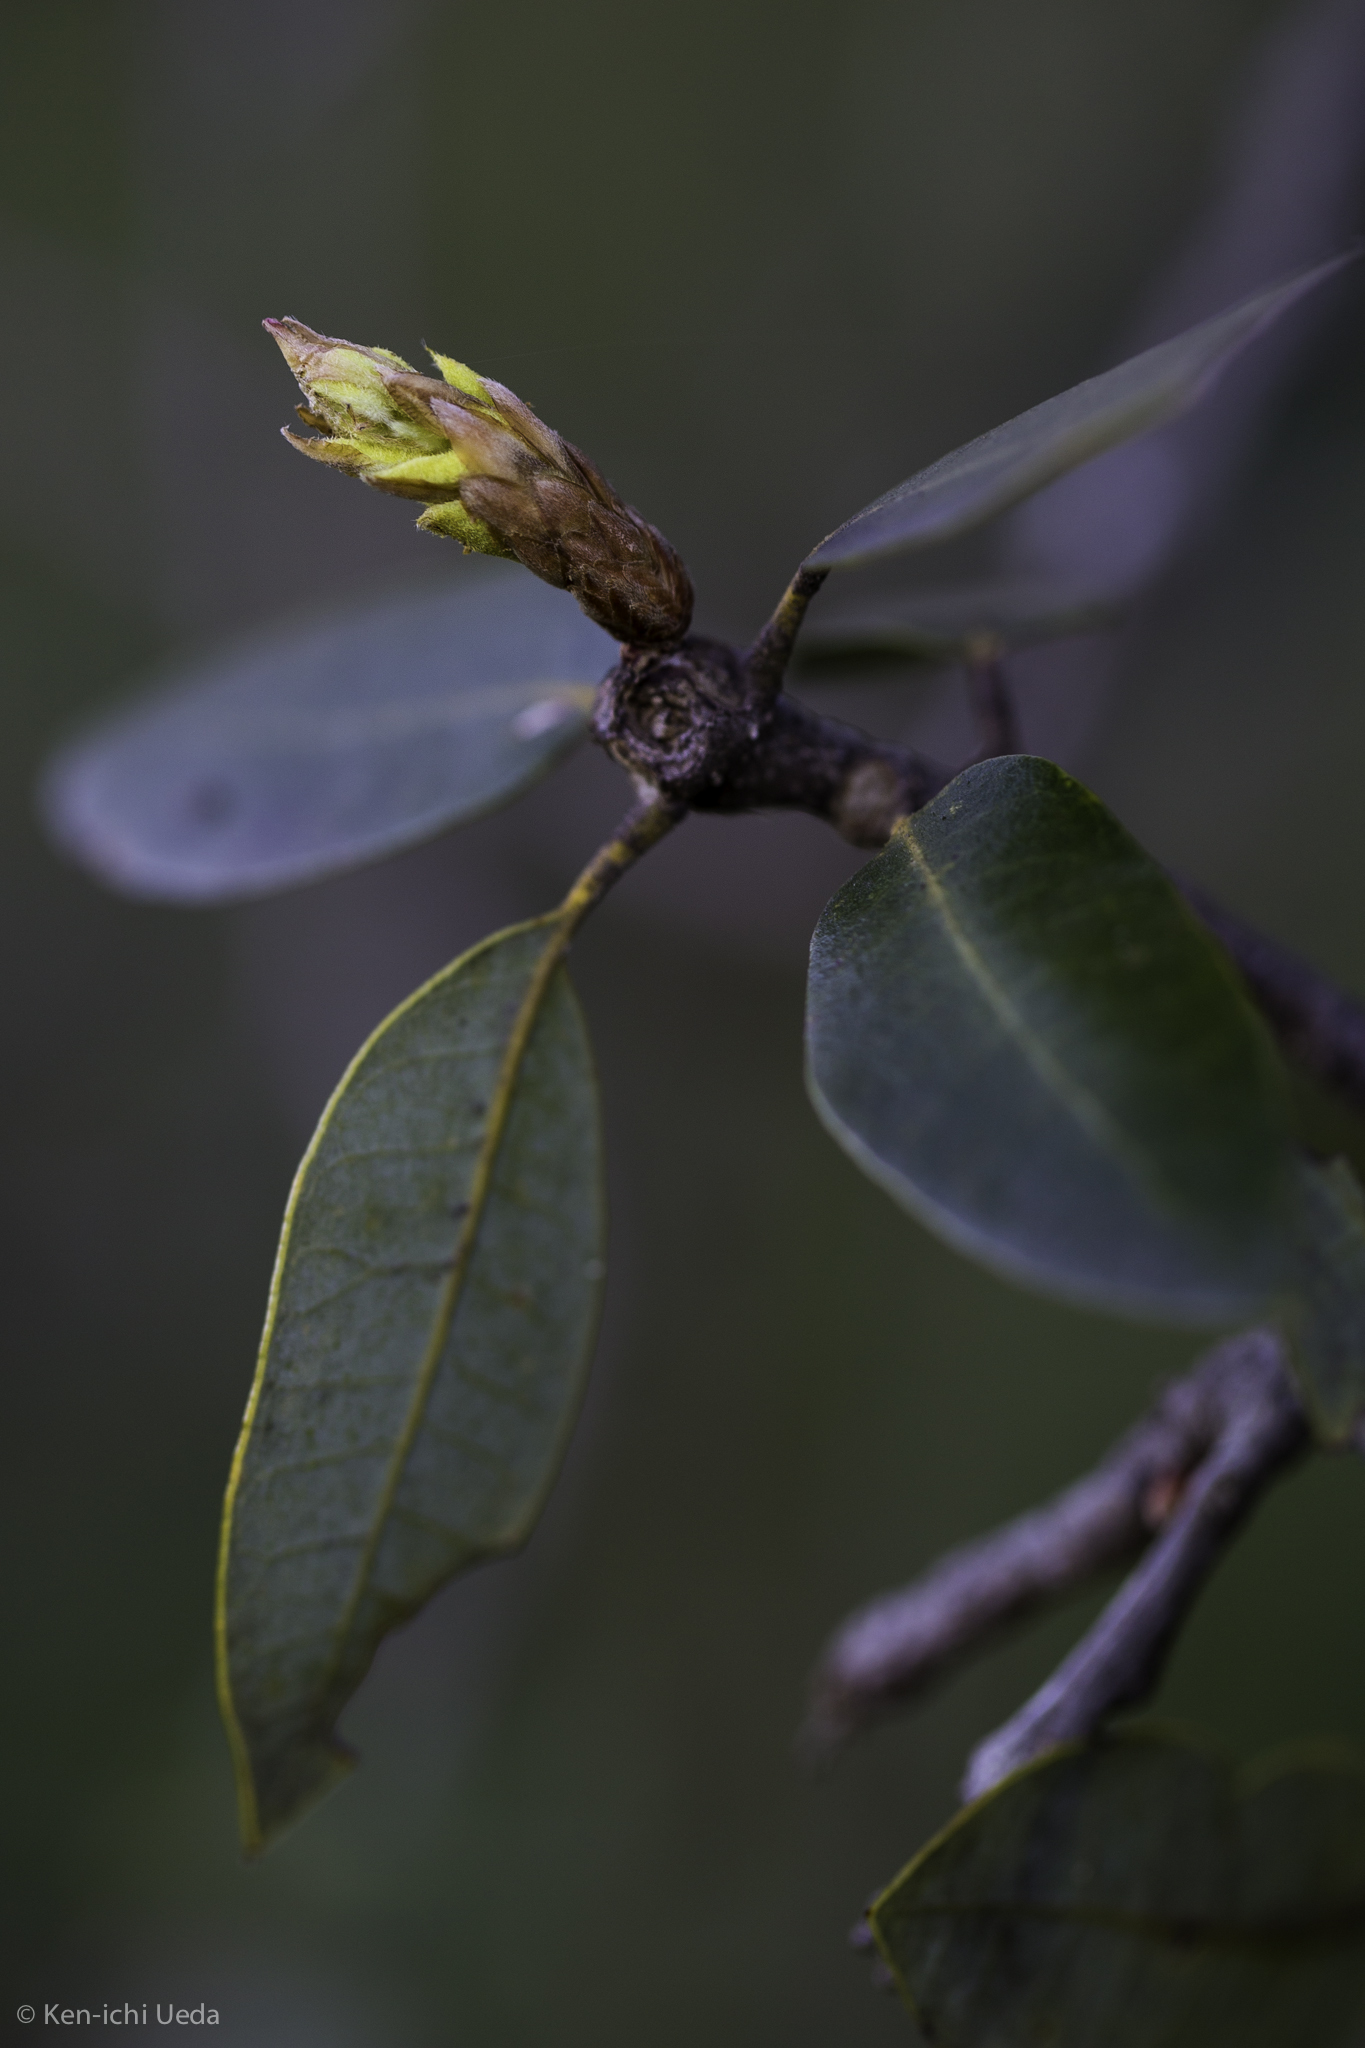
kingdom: Plantae
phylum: Tracheophyta
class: Magnoliopsida
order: Fagales
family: Fagaceae
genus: Quercus
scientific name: Quercus chrysolepis
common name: Canyon live oak
